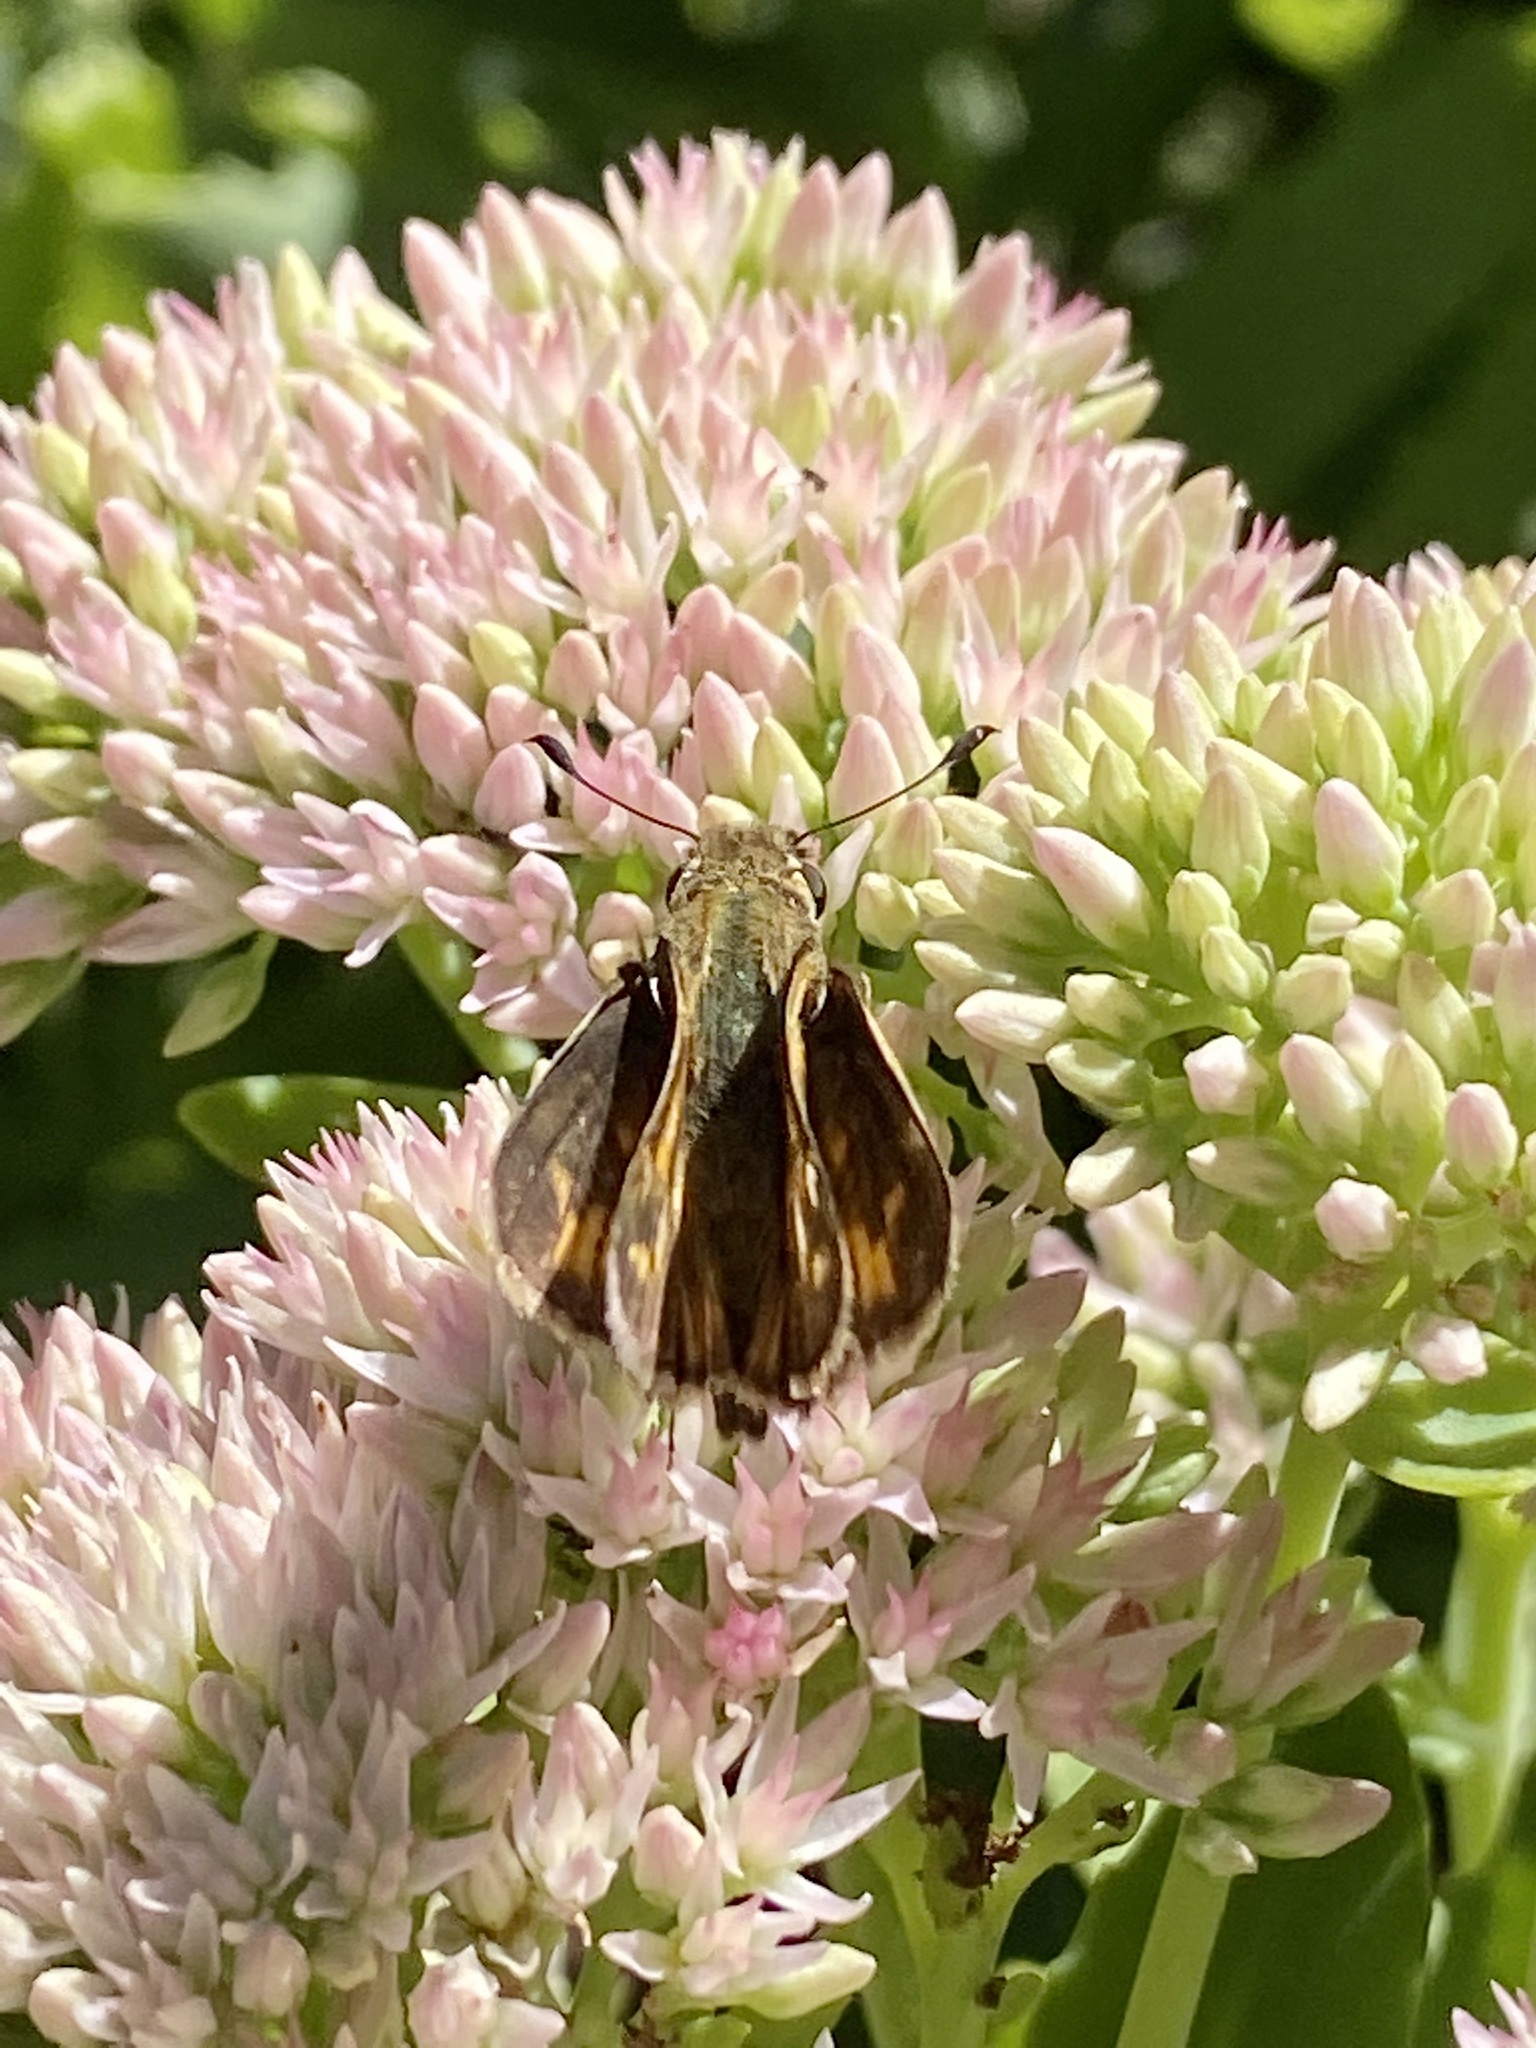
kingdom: Animalia
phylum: Arthropoda
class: Insecta
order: Lepidoptera
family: Hesperiidae
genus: Atalopedes
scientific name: Atalopedes
